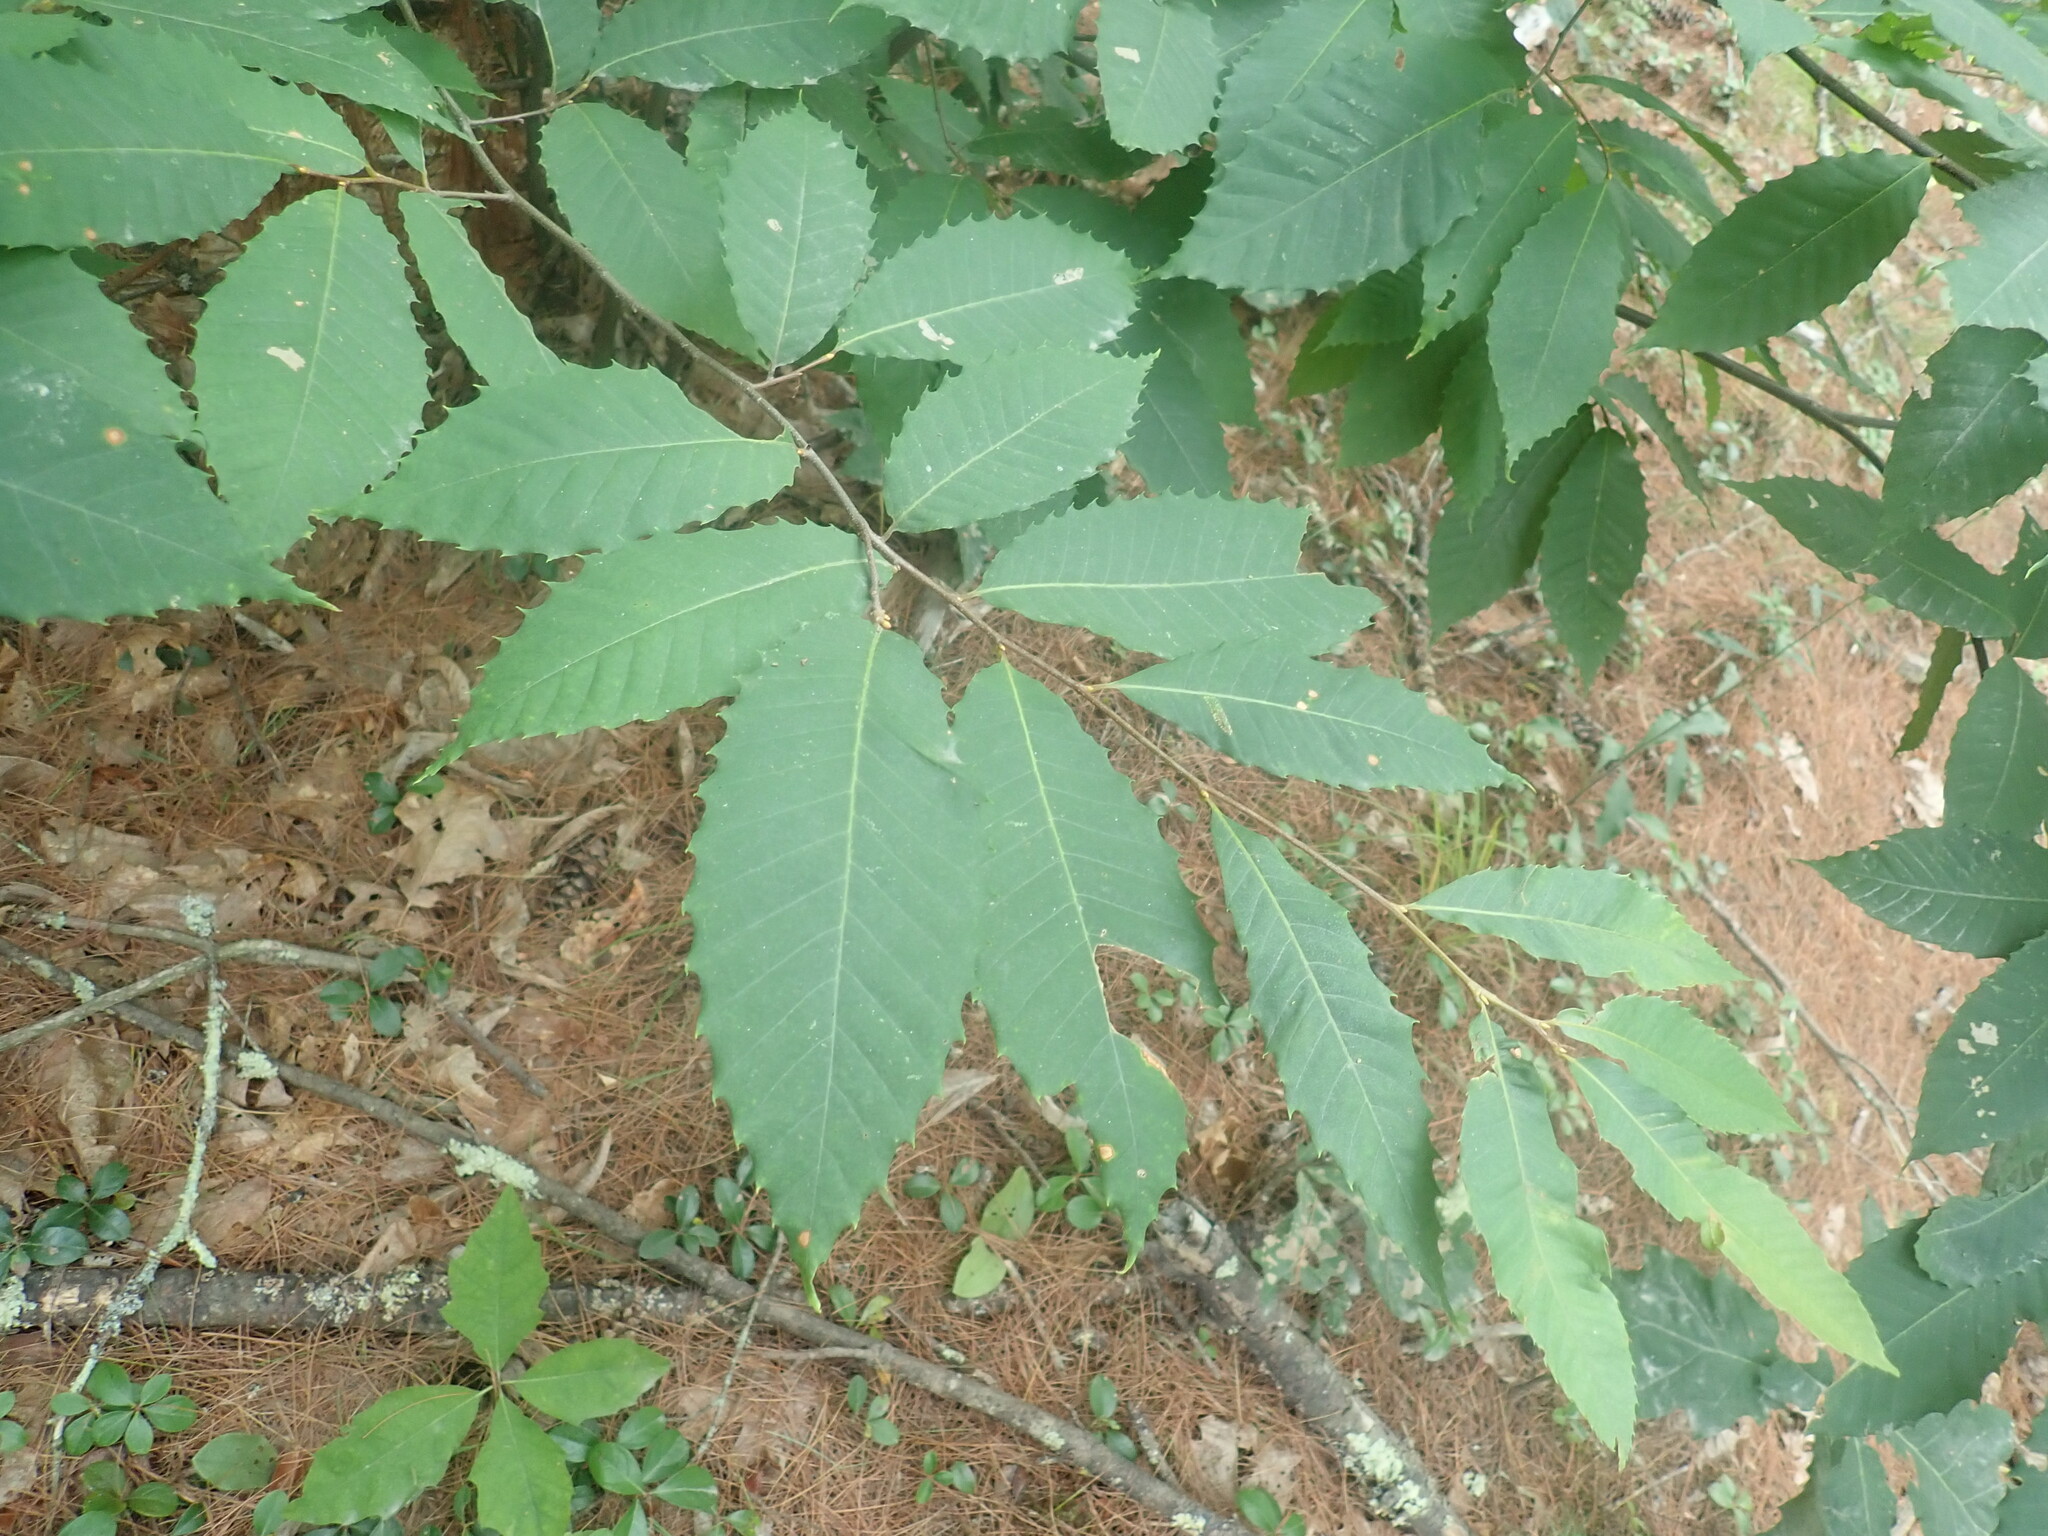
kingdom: Plantae
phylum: Tracheophyta
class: Magnoliopsida
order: Fagales
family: Fagaceae
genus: Castanea
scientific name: Castanea dentata
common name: American chestnut
